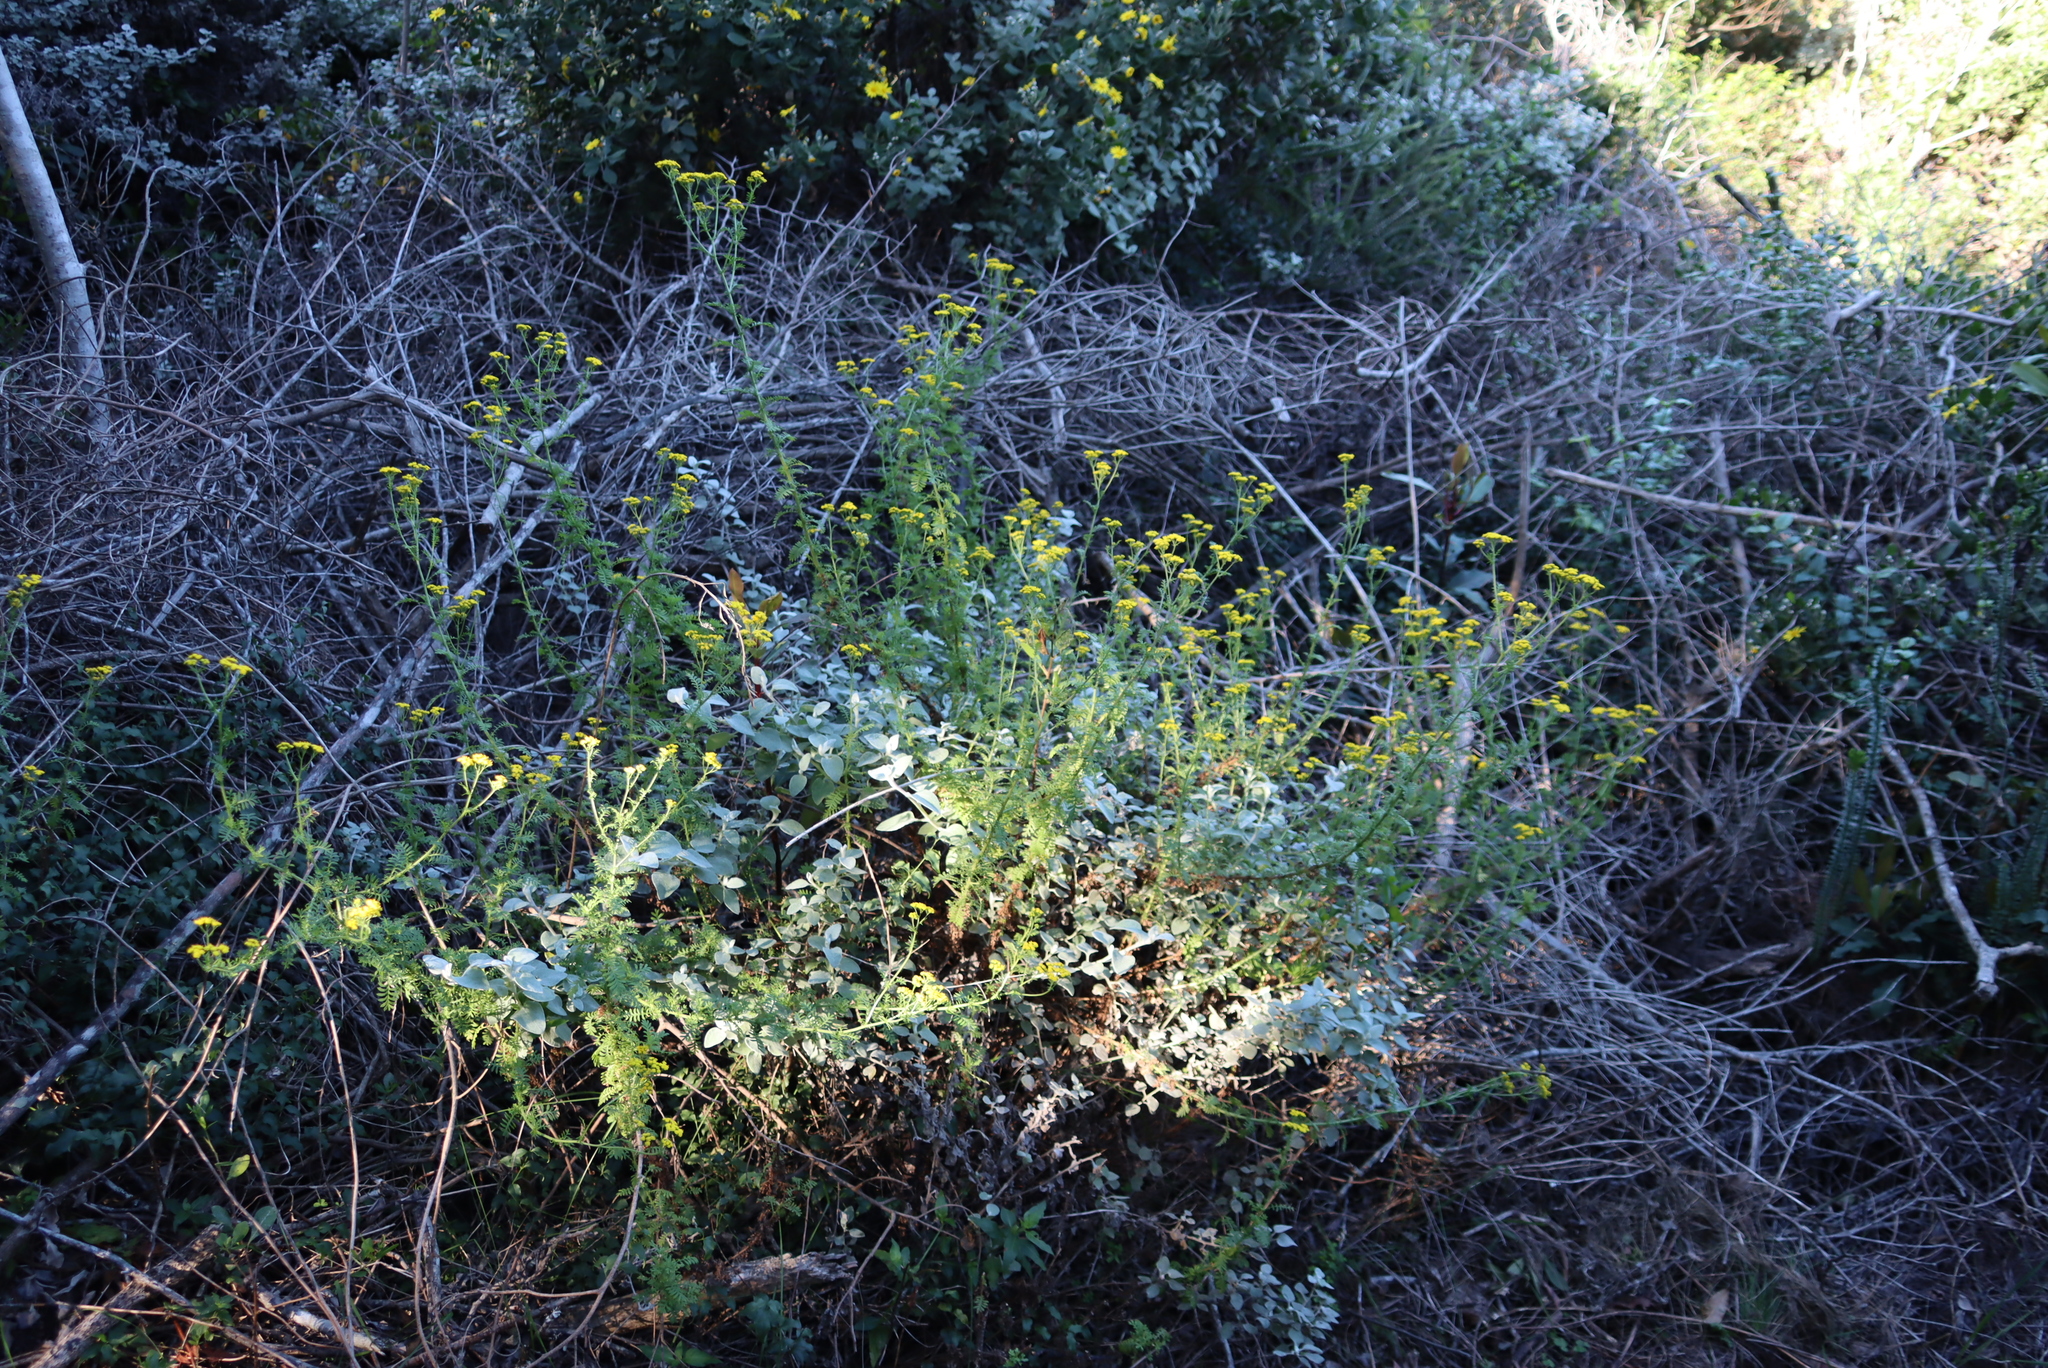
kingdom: Plantae
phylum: Tracheophyta
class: Magnoliopsida
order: Asterales
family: Asteraceae
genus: Hippia
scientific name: Hippia frutescens
